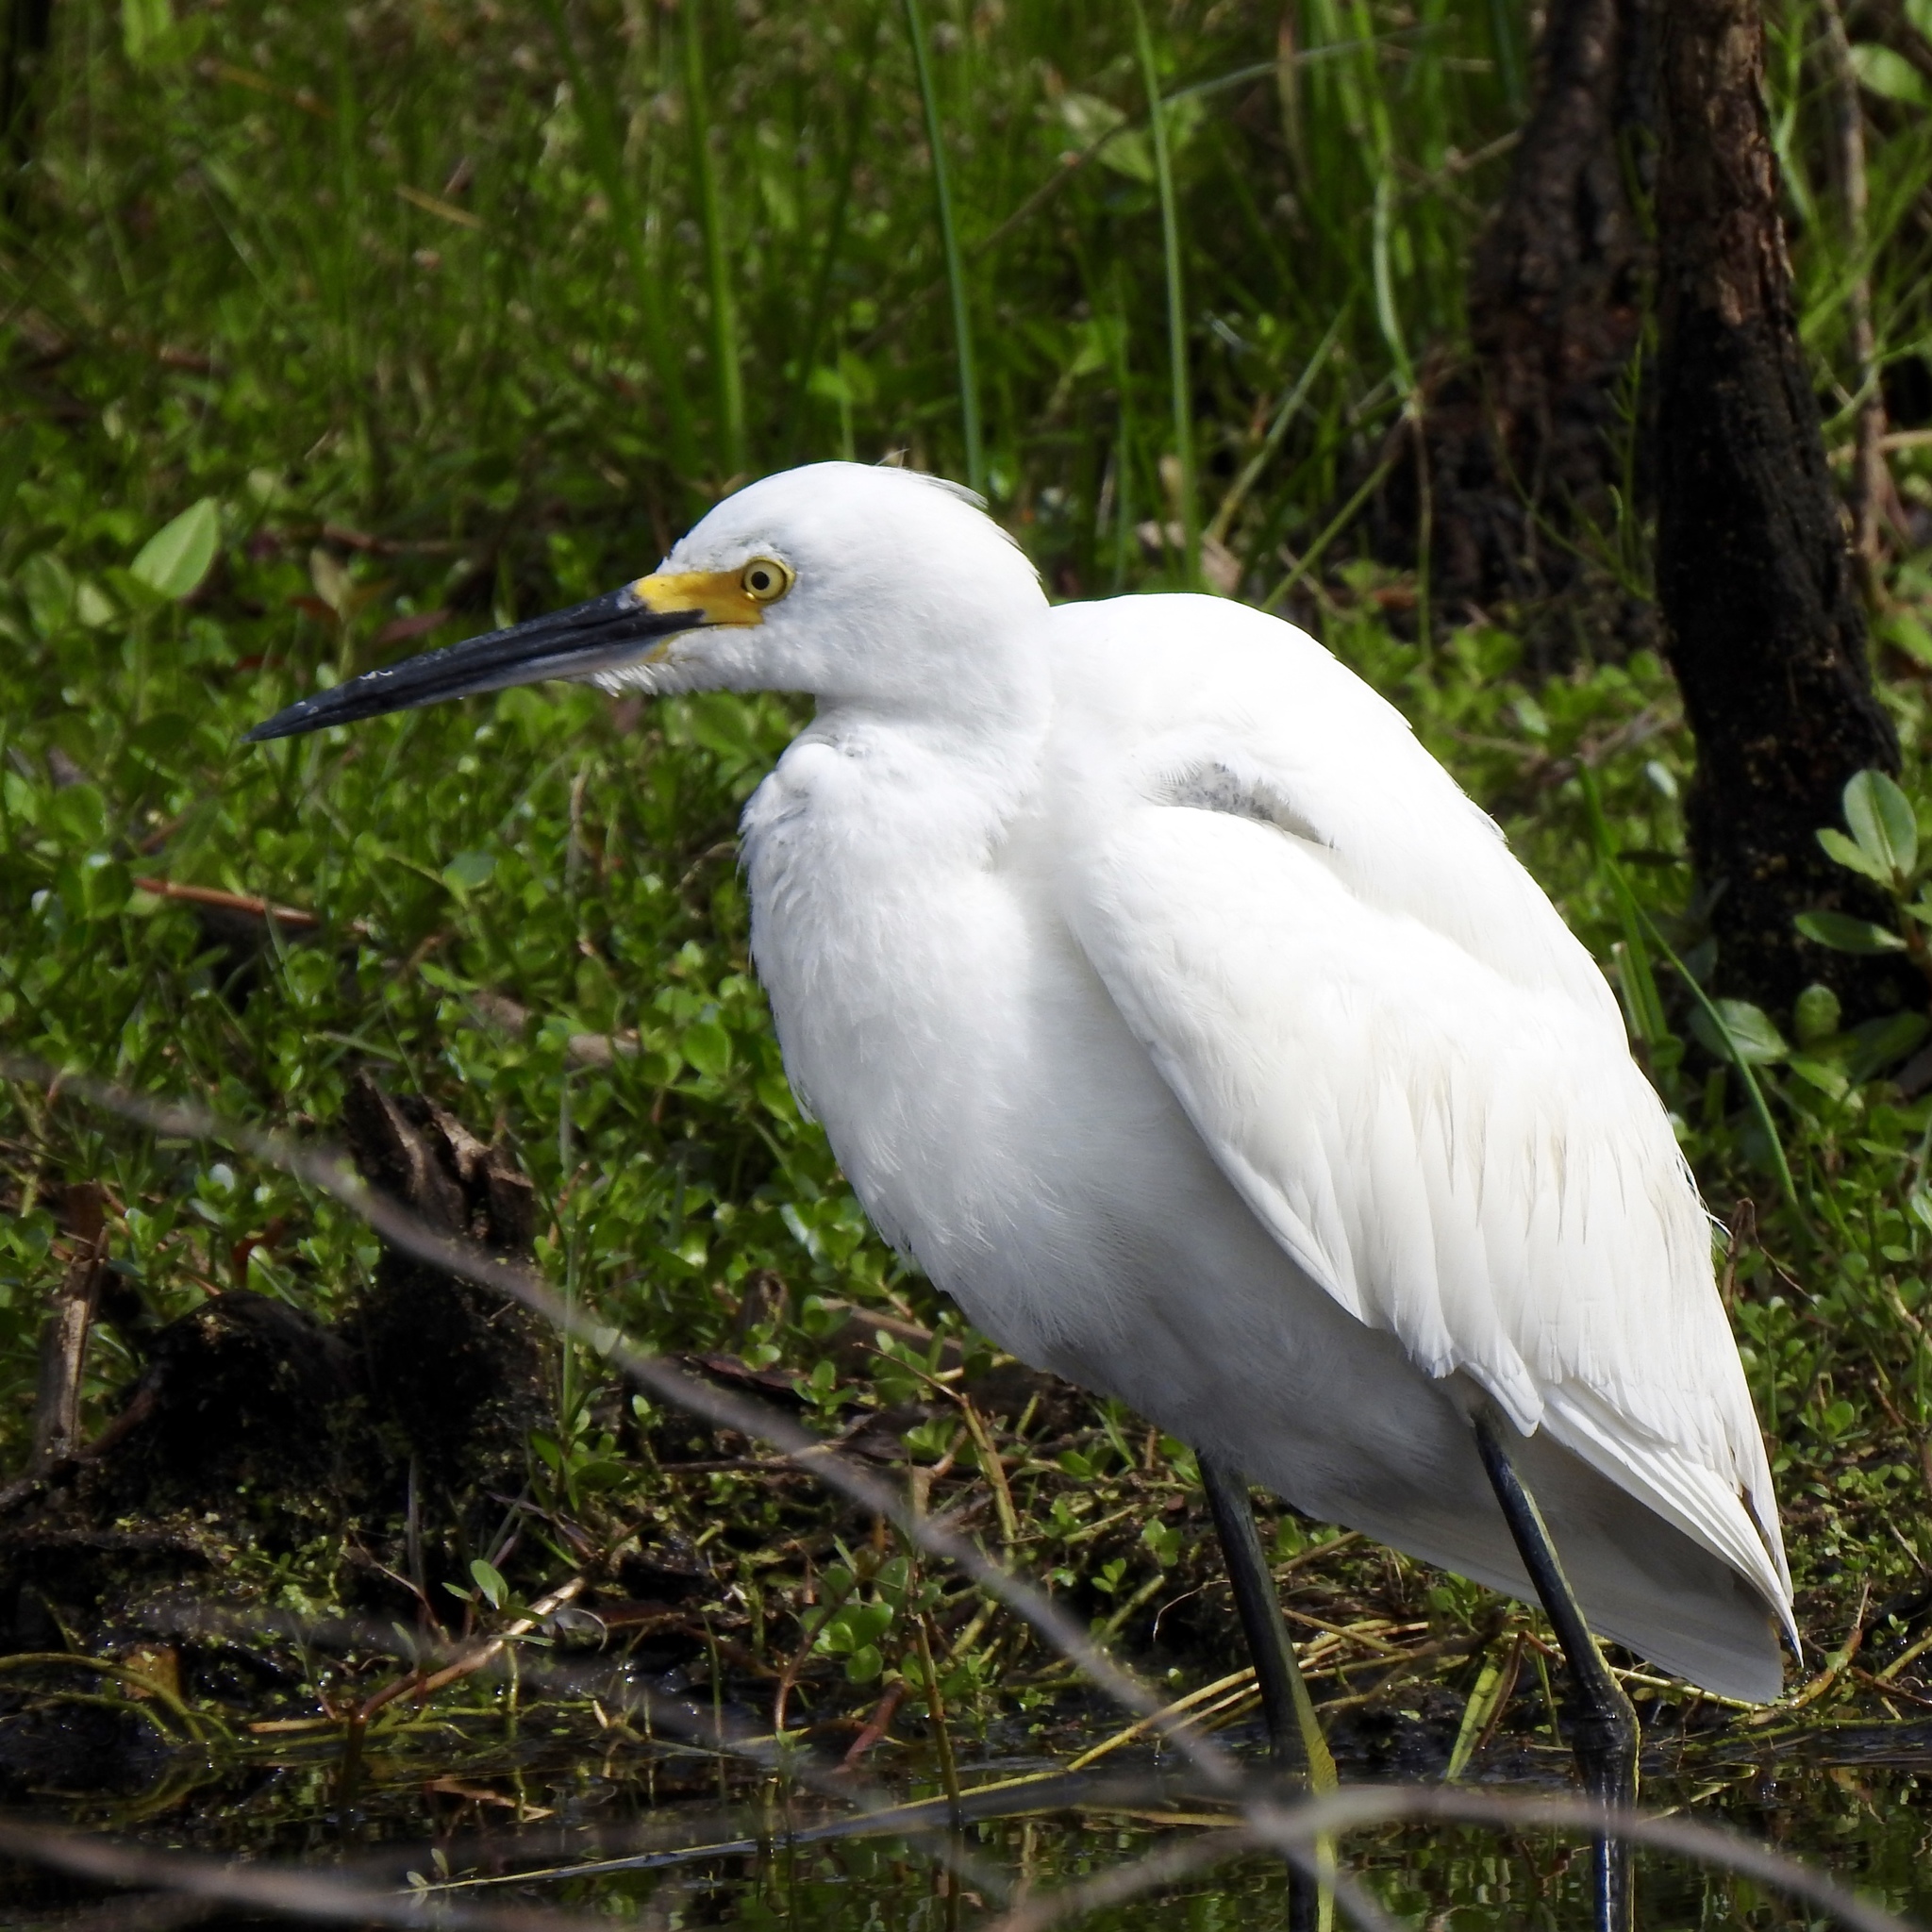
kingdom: Animalia
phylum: Chordata
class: Aves
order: Pelecaniformes
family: Ardeidae
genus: Egretta
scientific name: Egretta thula
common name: Snowy egret
